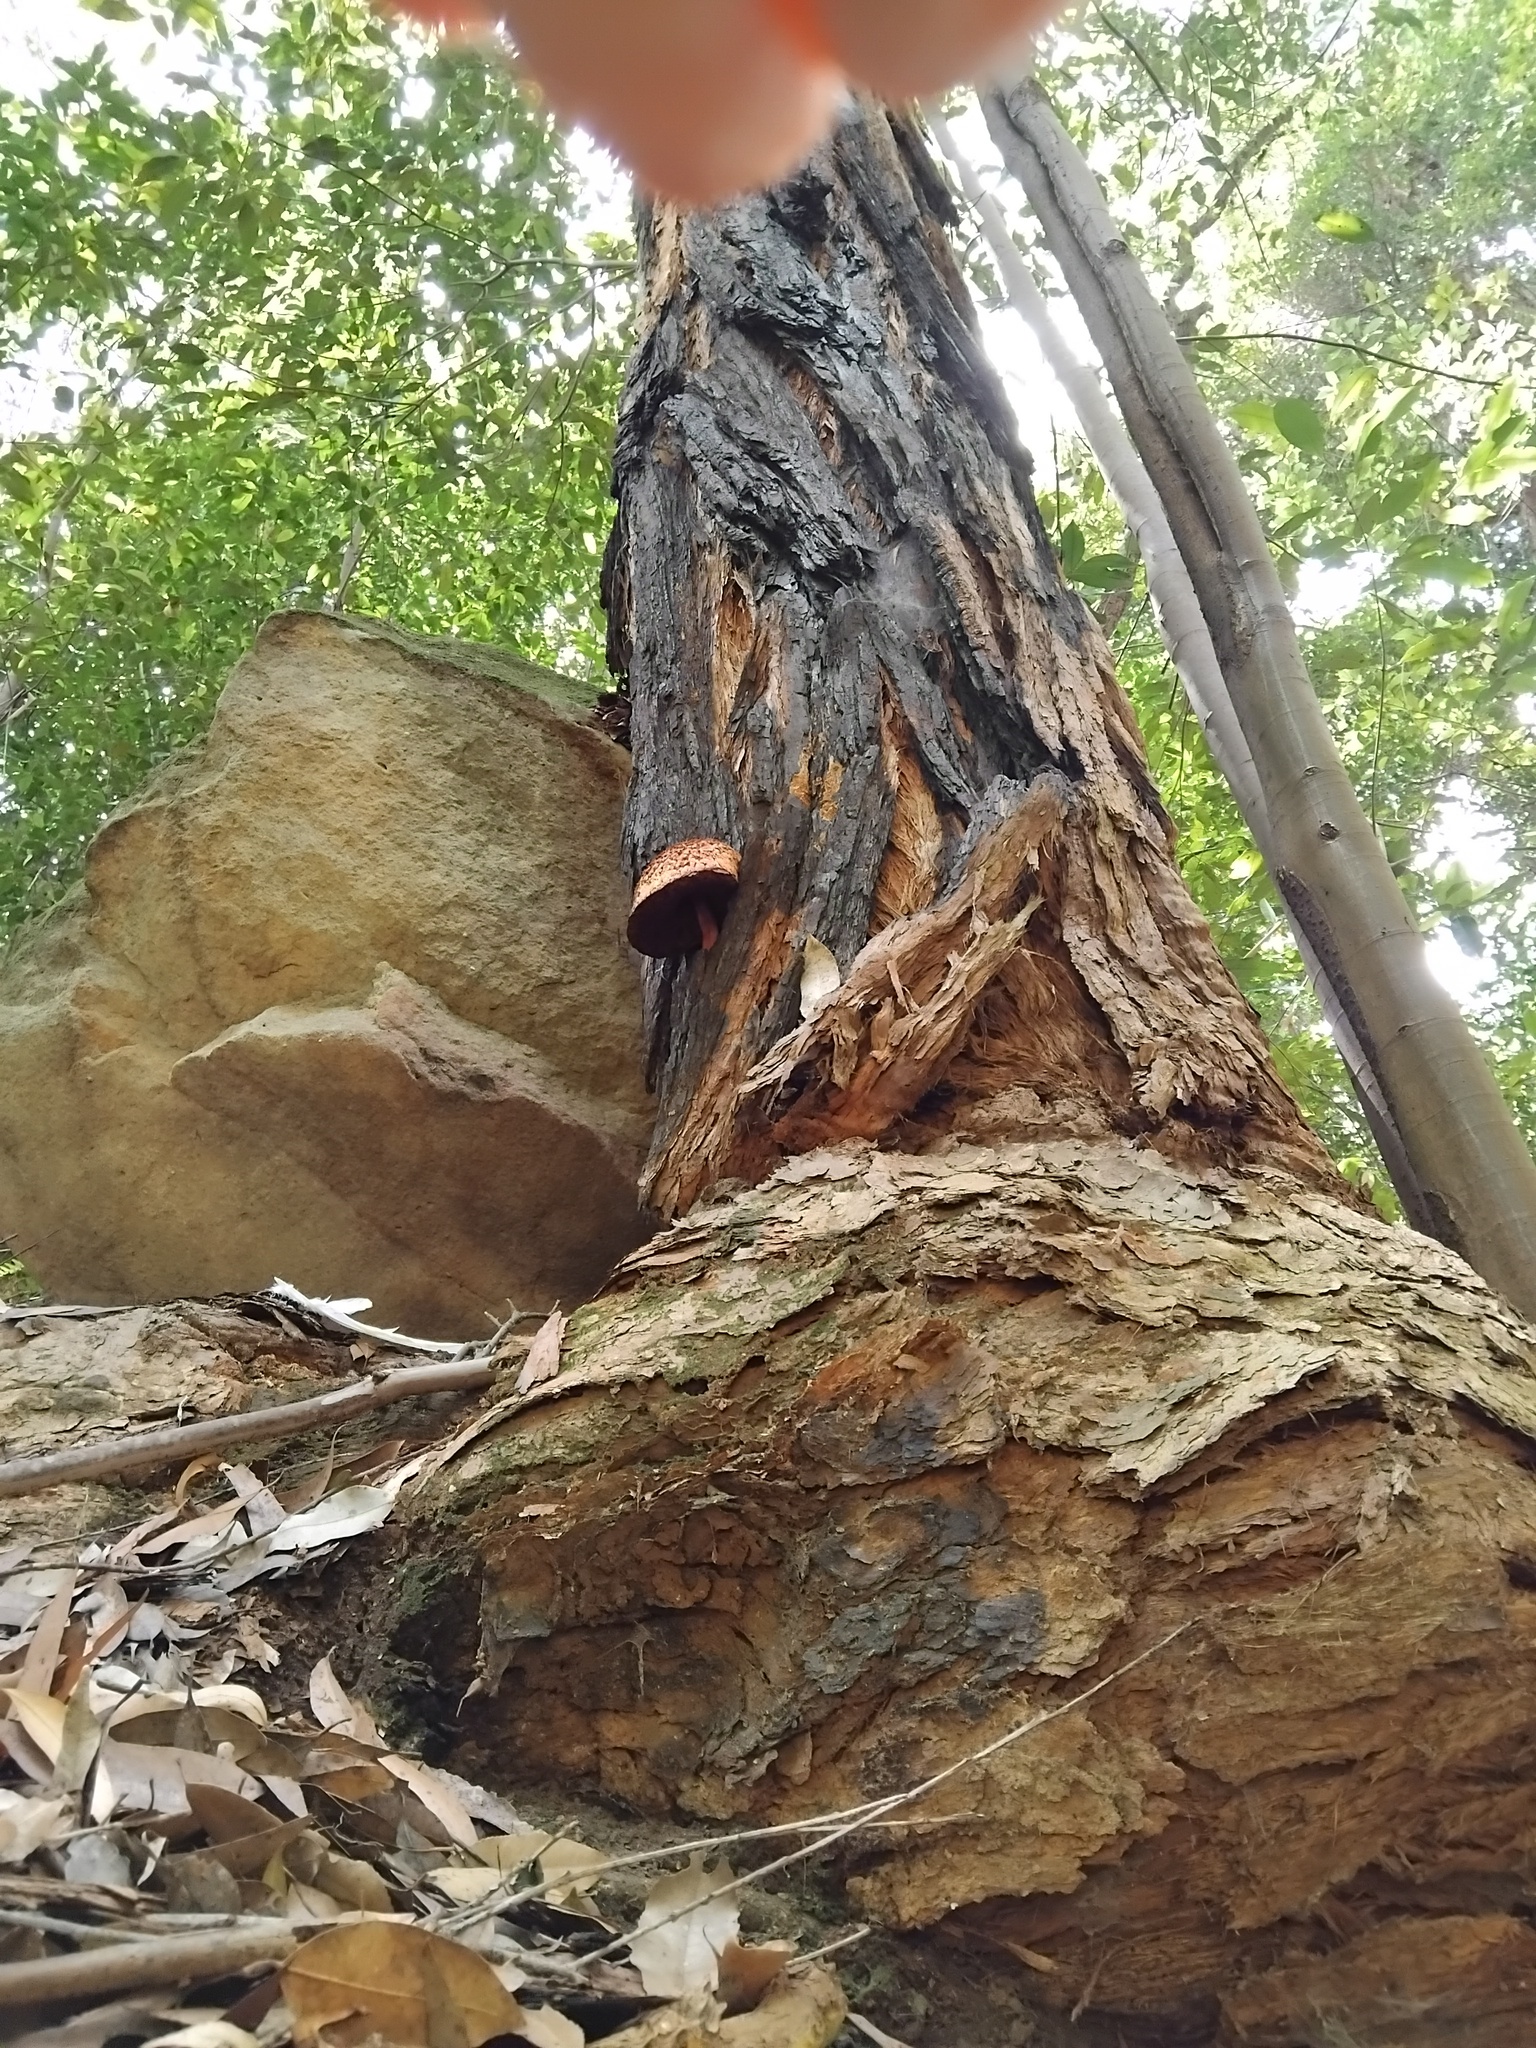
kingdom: Fungi
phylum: Basidiomycota
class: Agaricomycetes
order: Boletales
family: Boletaceae
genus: Boletellus
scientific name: Boletellus emodensis
